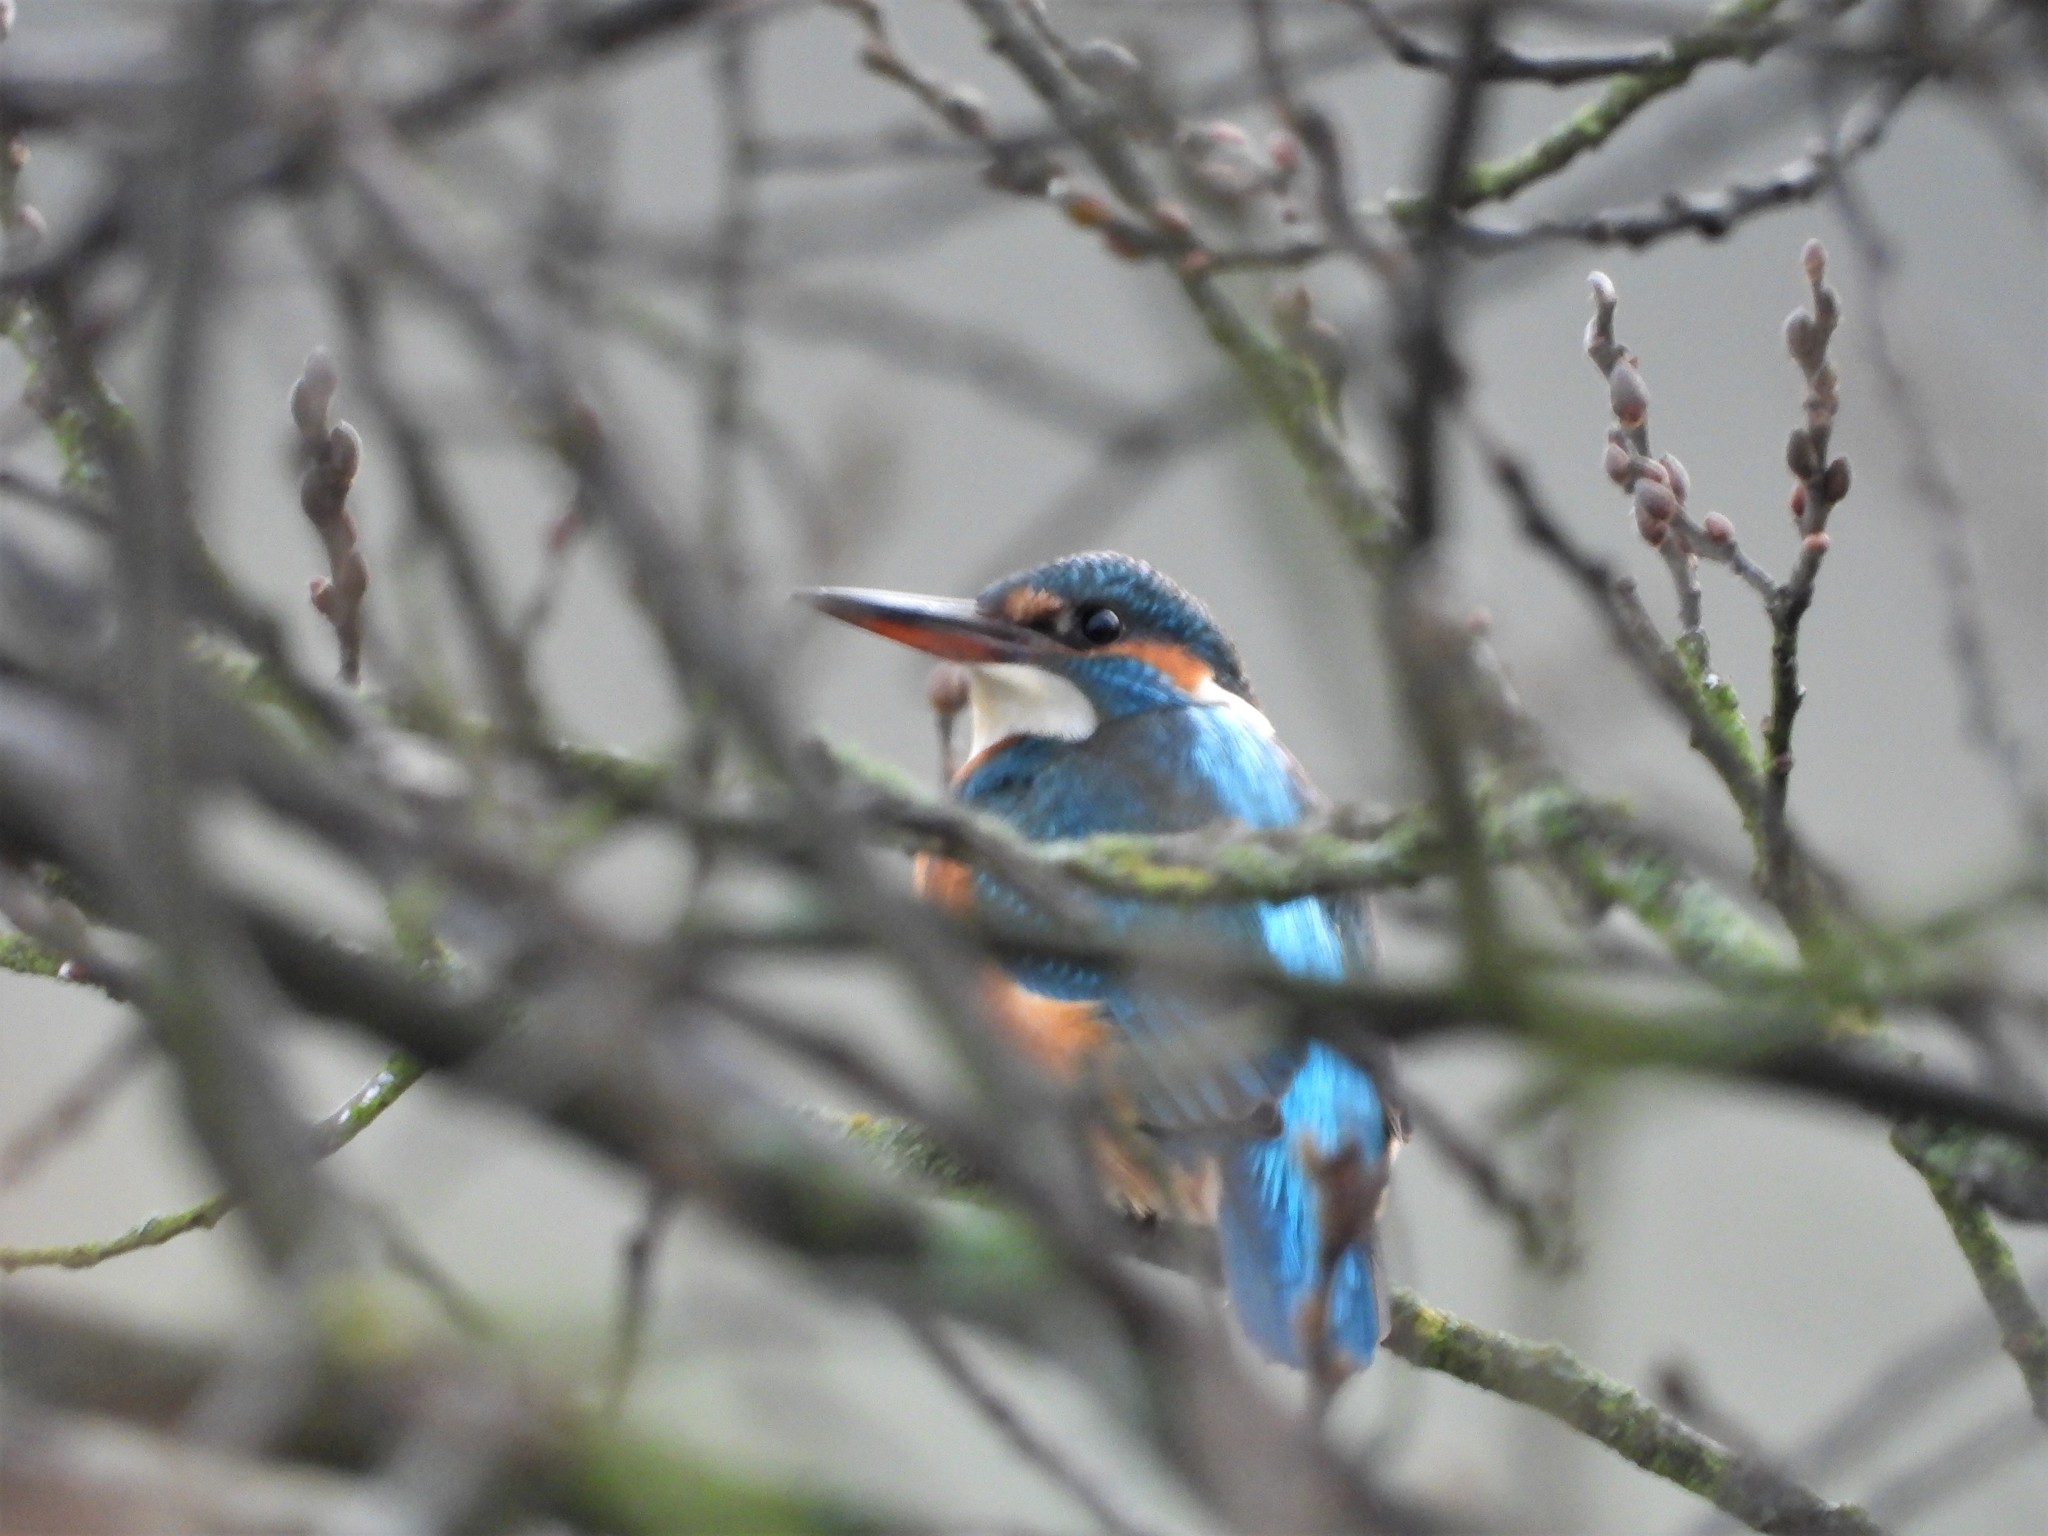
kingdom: Animalia
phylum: Chordata
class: Aves
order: Coraciiformes
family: Alcedinidae
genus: Alcedo
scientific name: Alcedo atthis
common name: Common kingfisher
